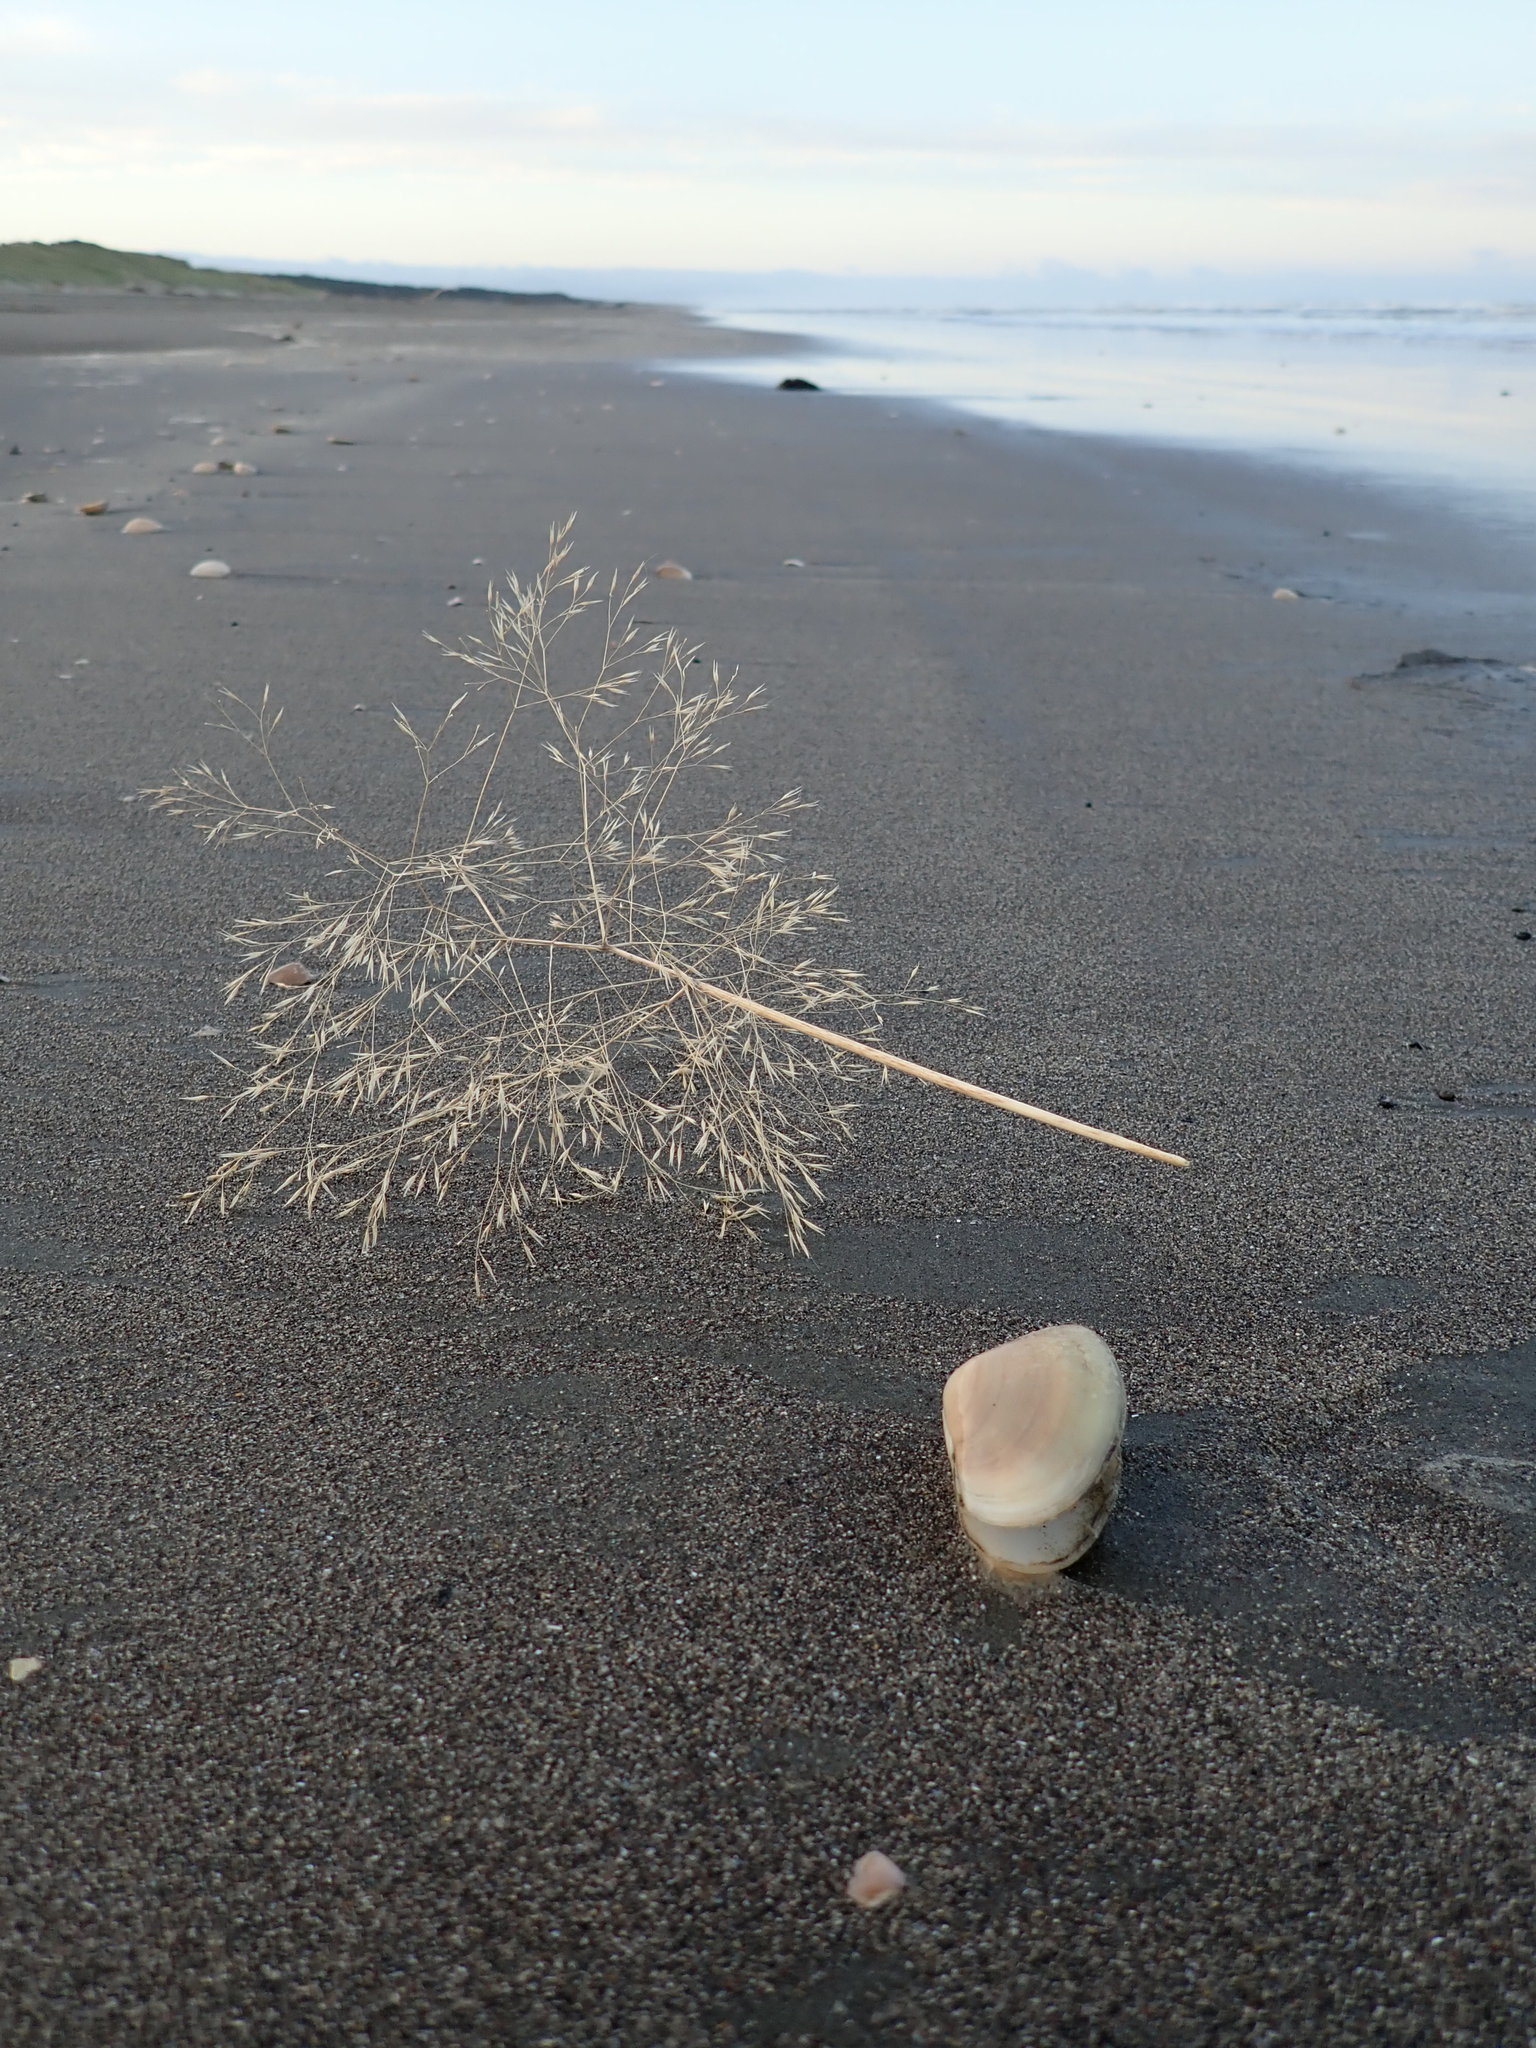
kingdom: Plantae
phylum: Tracheophyta
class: Liliopsida
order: Poales
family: Poaceae
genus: Lachnagrostis
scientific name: Lachnagrostis billardierei
